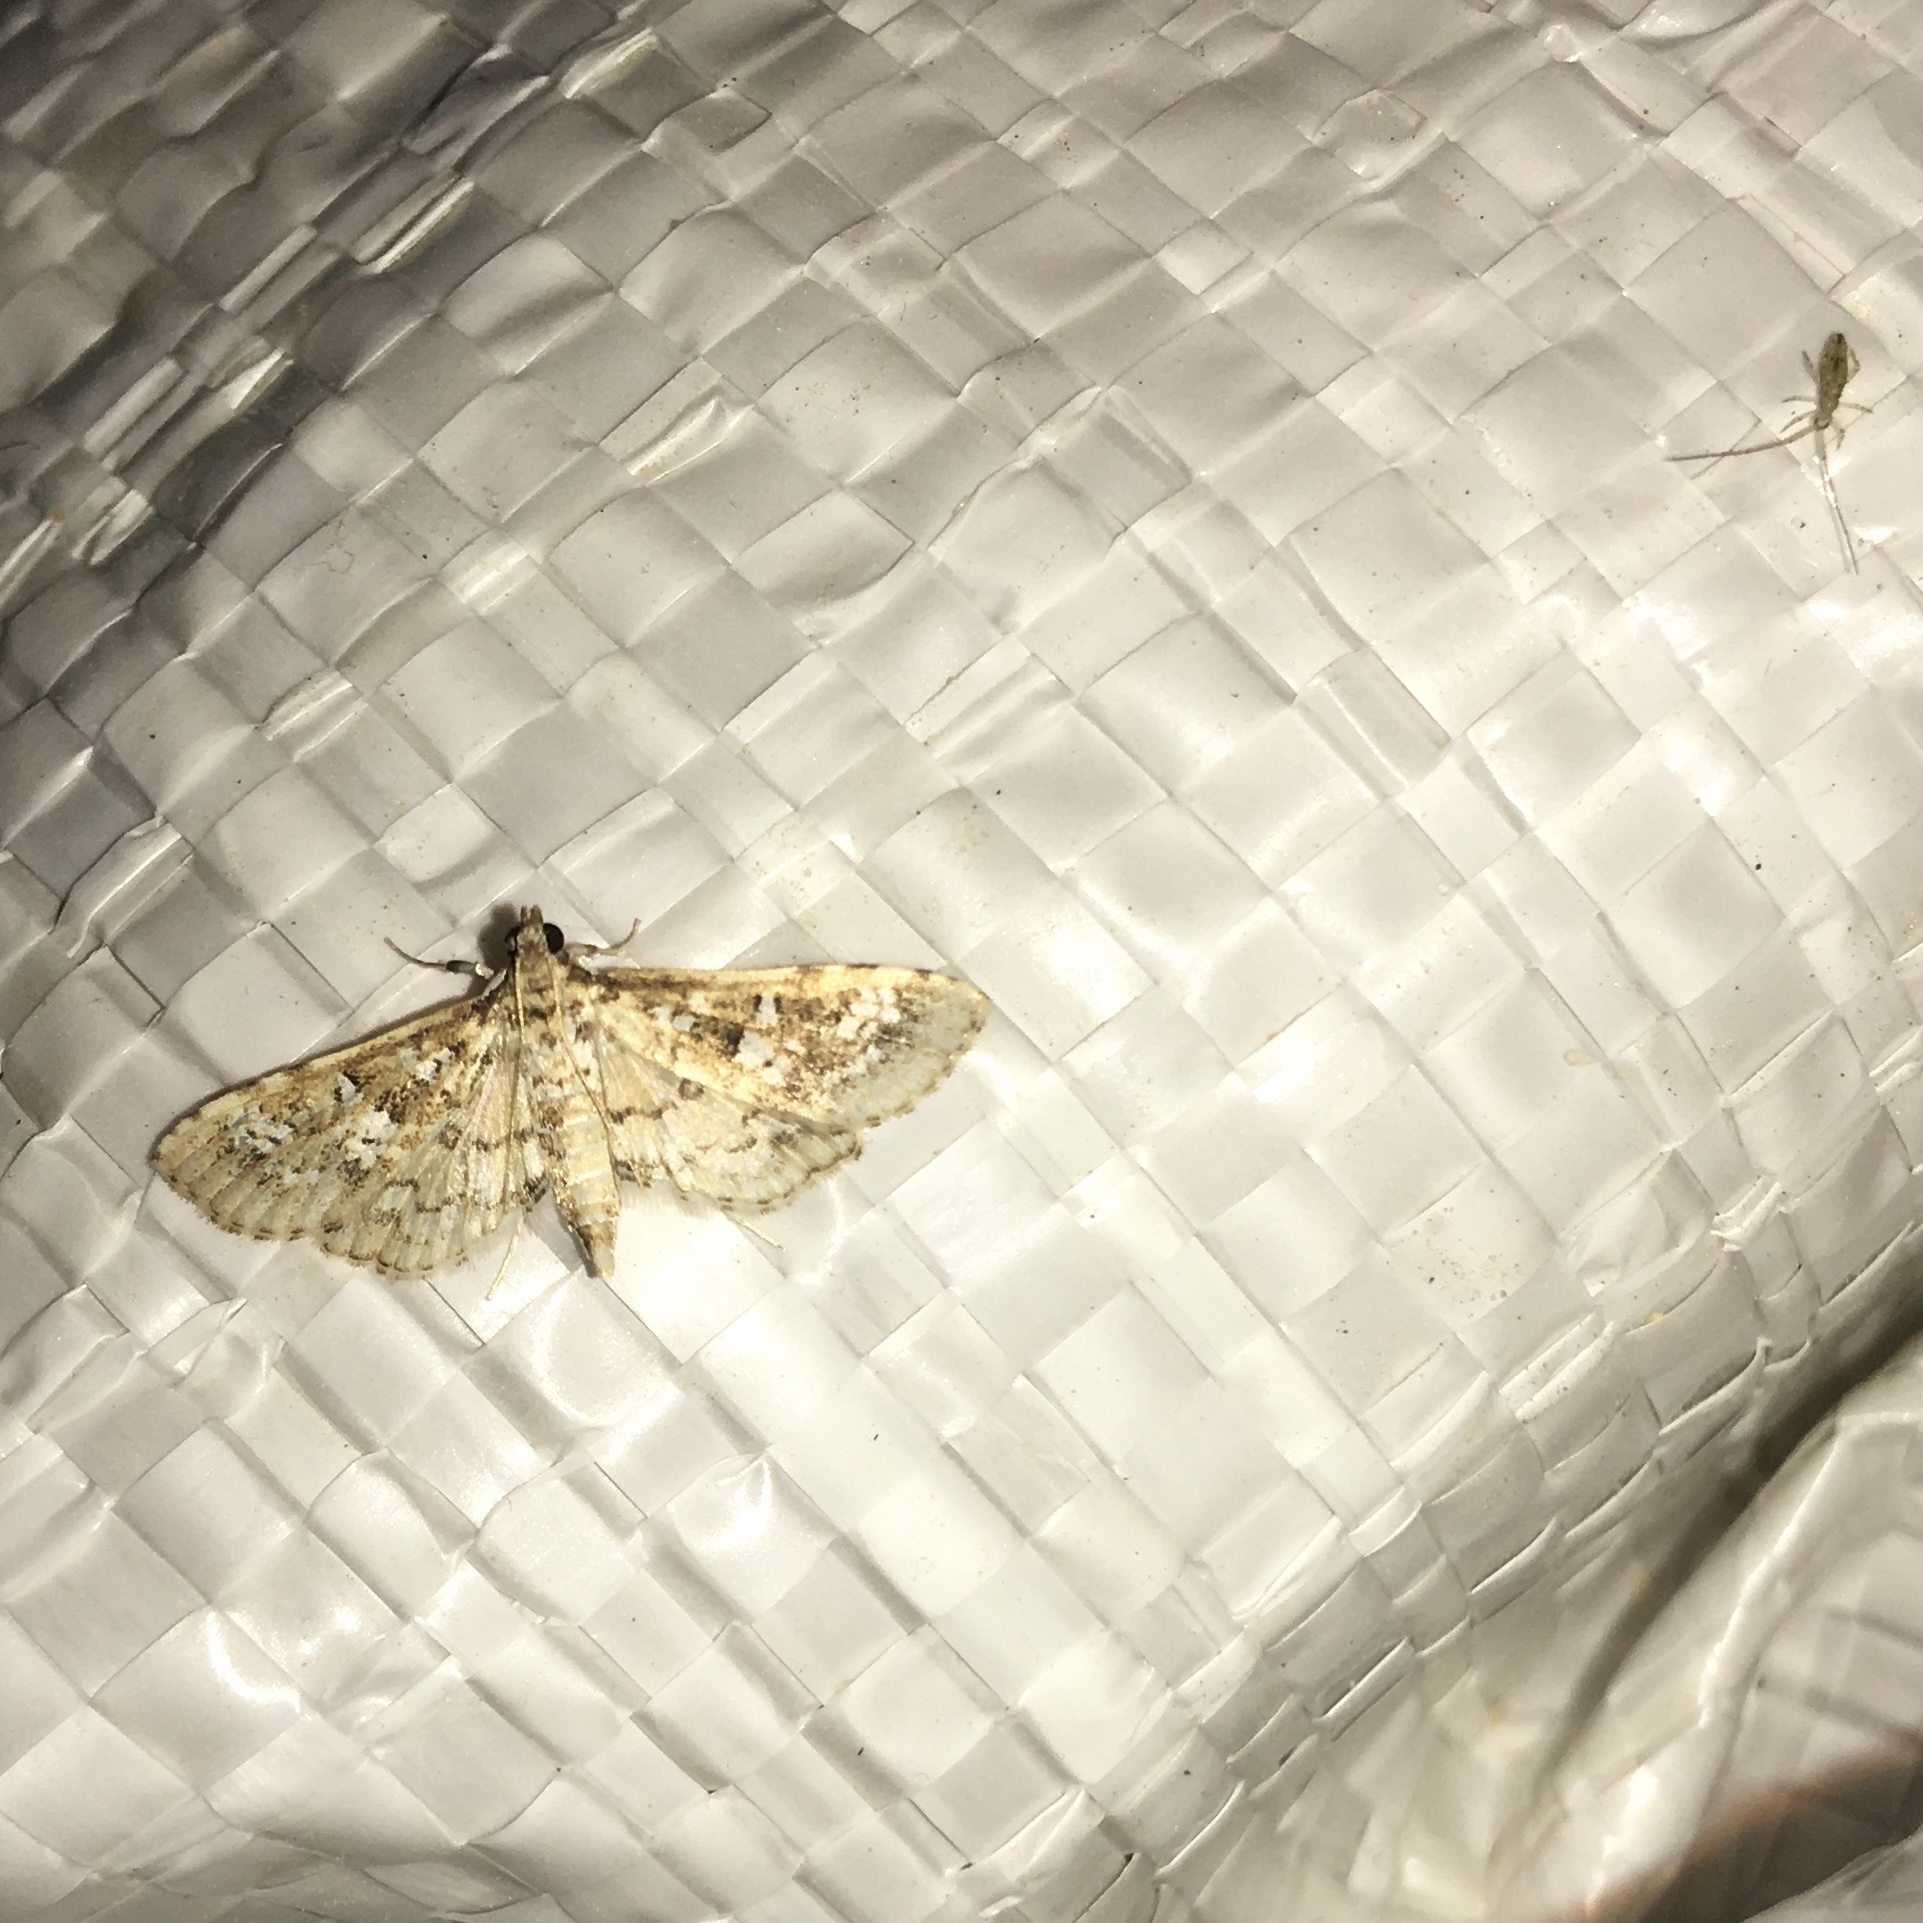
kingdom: Animalia
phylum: Arthropoda
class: Insecta
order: Lepidoptera
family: Crambidae
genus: Samea
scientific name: Samea multiplicalis
